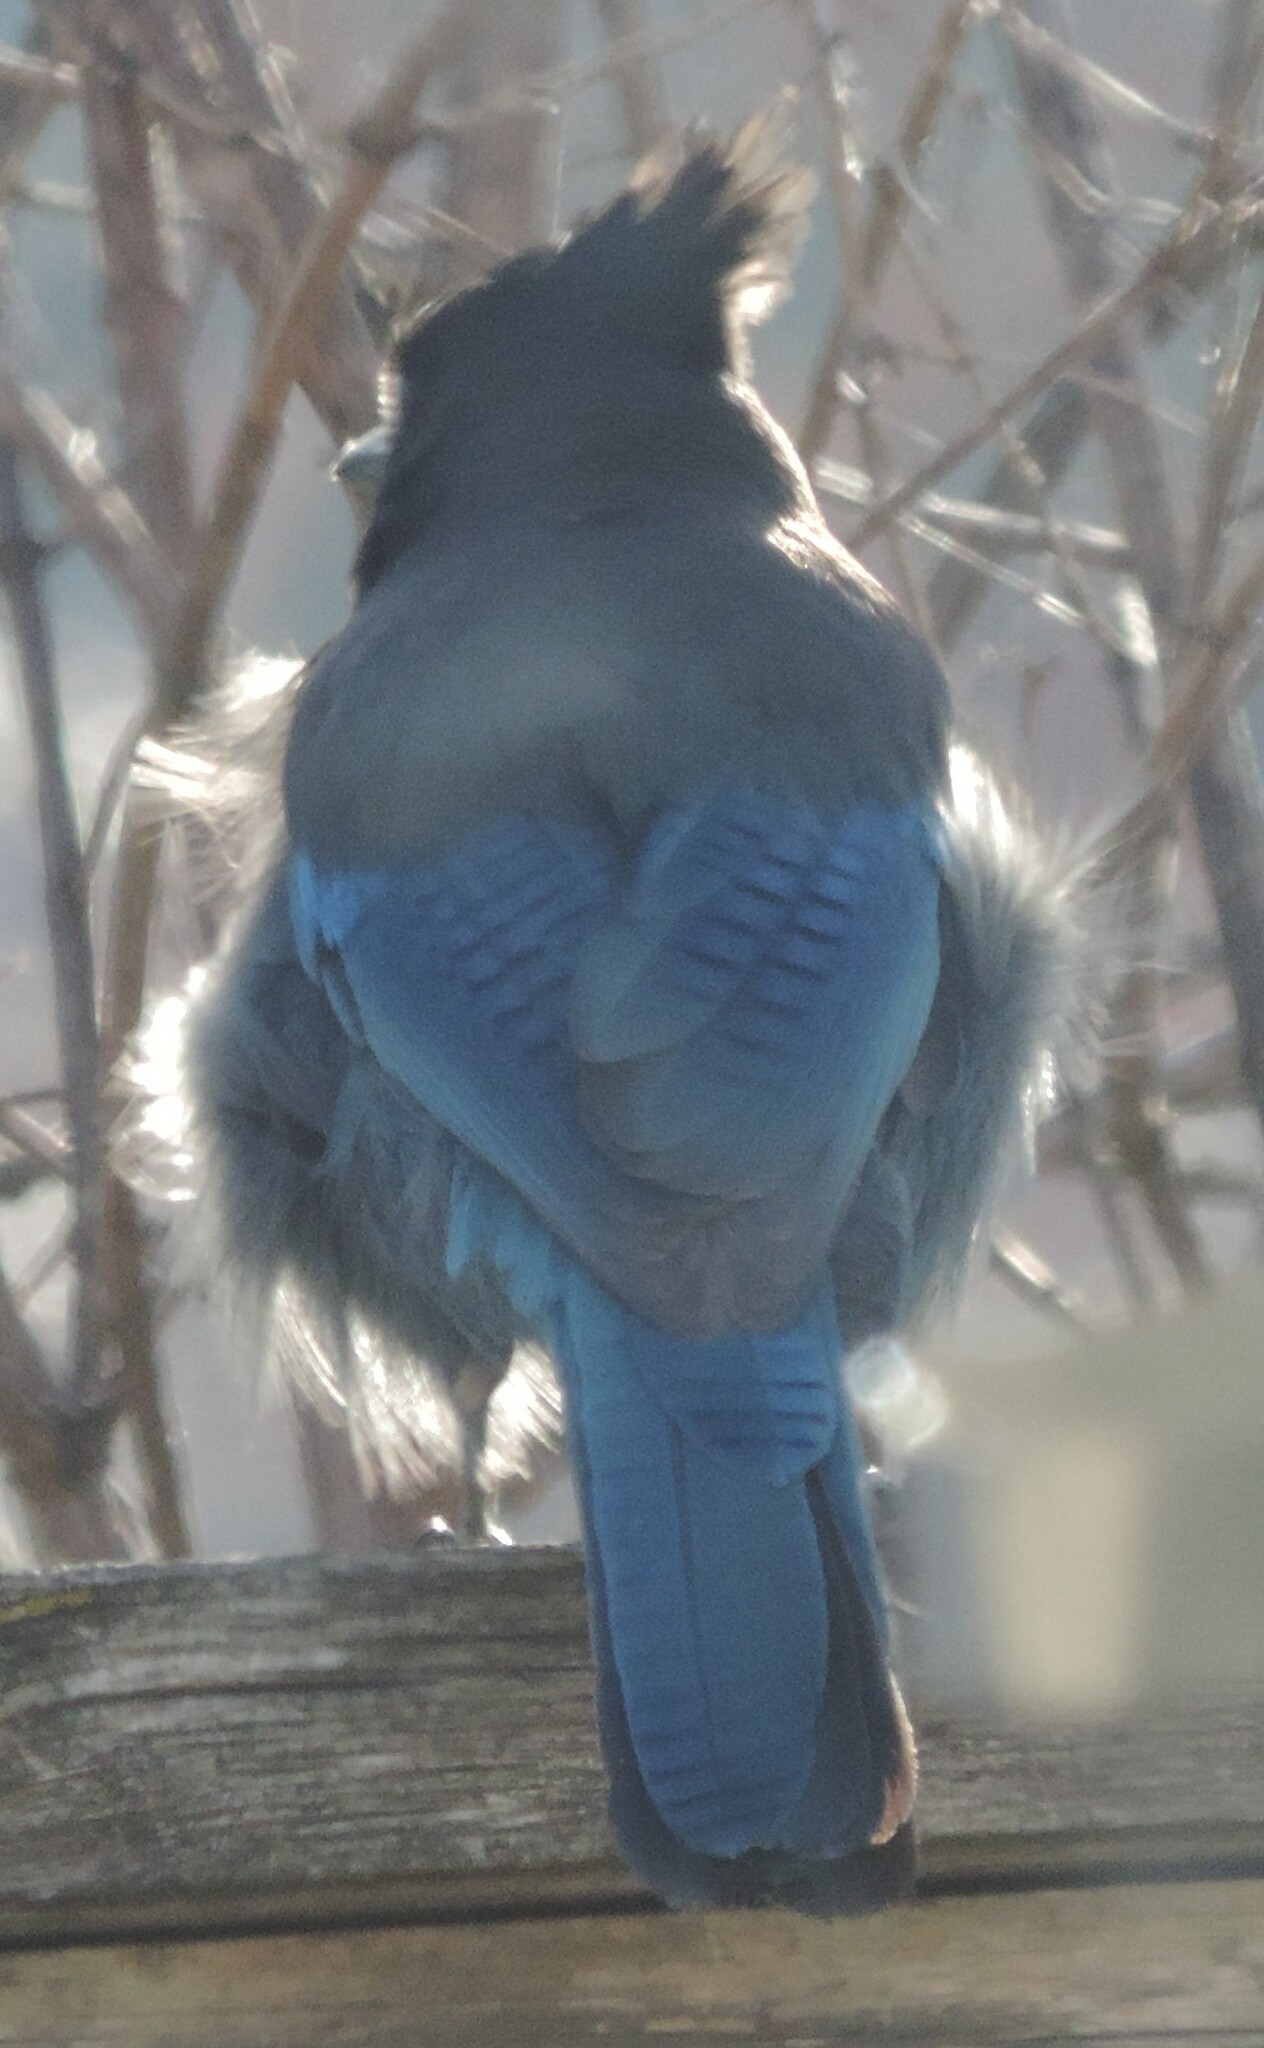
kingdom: Animalia
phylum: Chordata
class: Aves
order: Passeriformes
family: Corvidae
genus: Cyanocitta
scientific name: Cyanocitta stelleri
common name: Steller's jay
